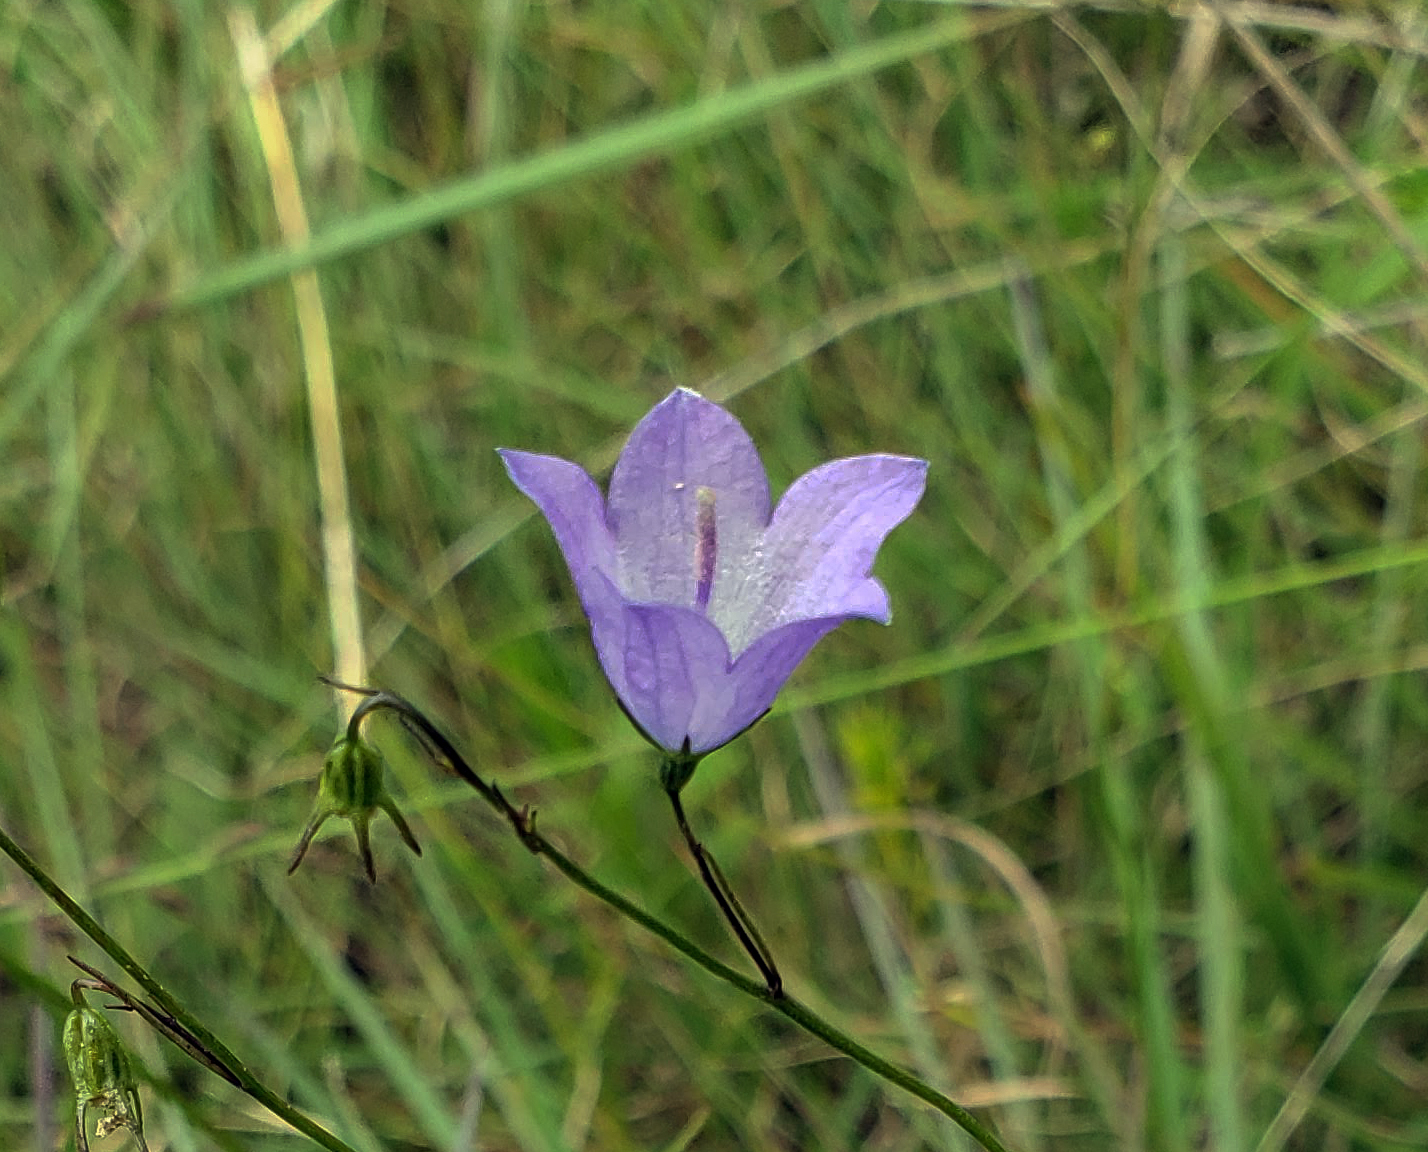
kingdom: Plantae
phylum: Tracheophyta
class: Magnoliopsida
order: Asterales
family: Campanulaceae
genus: Campanula
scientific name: Campanula intercedens
